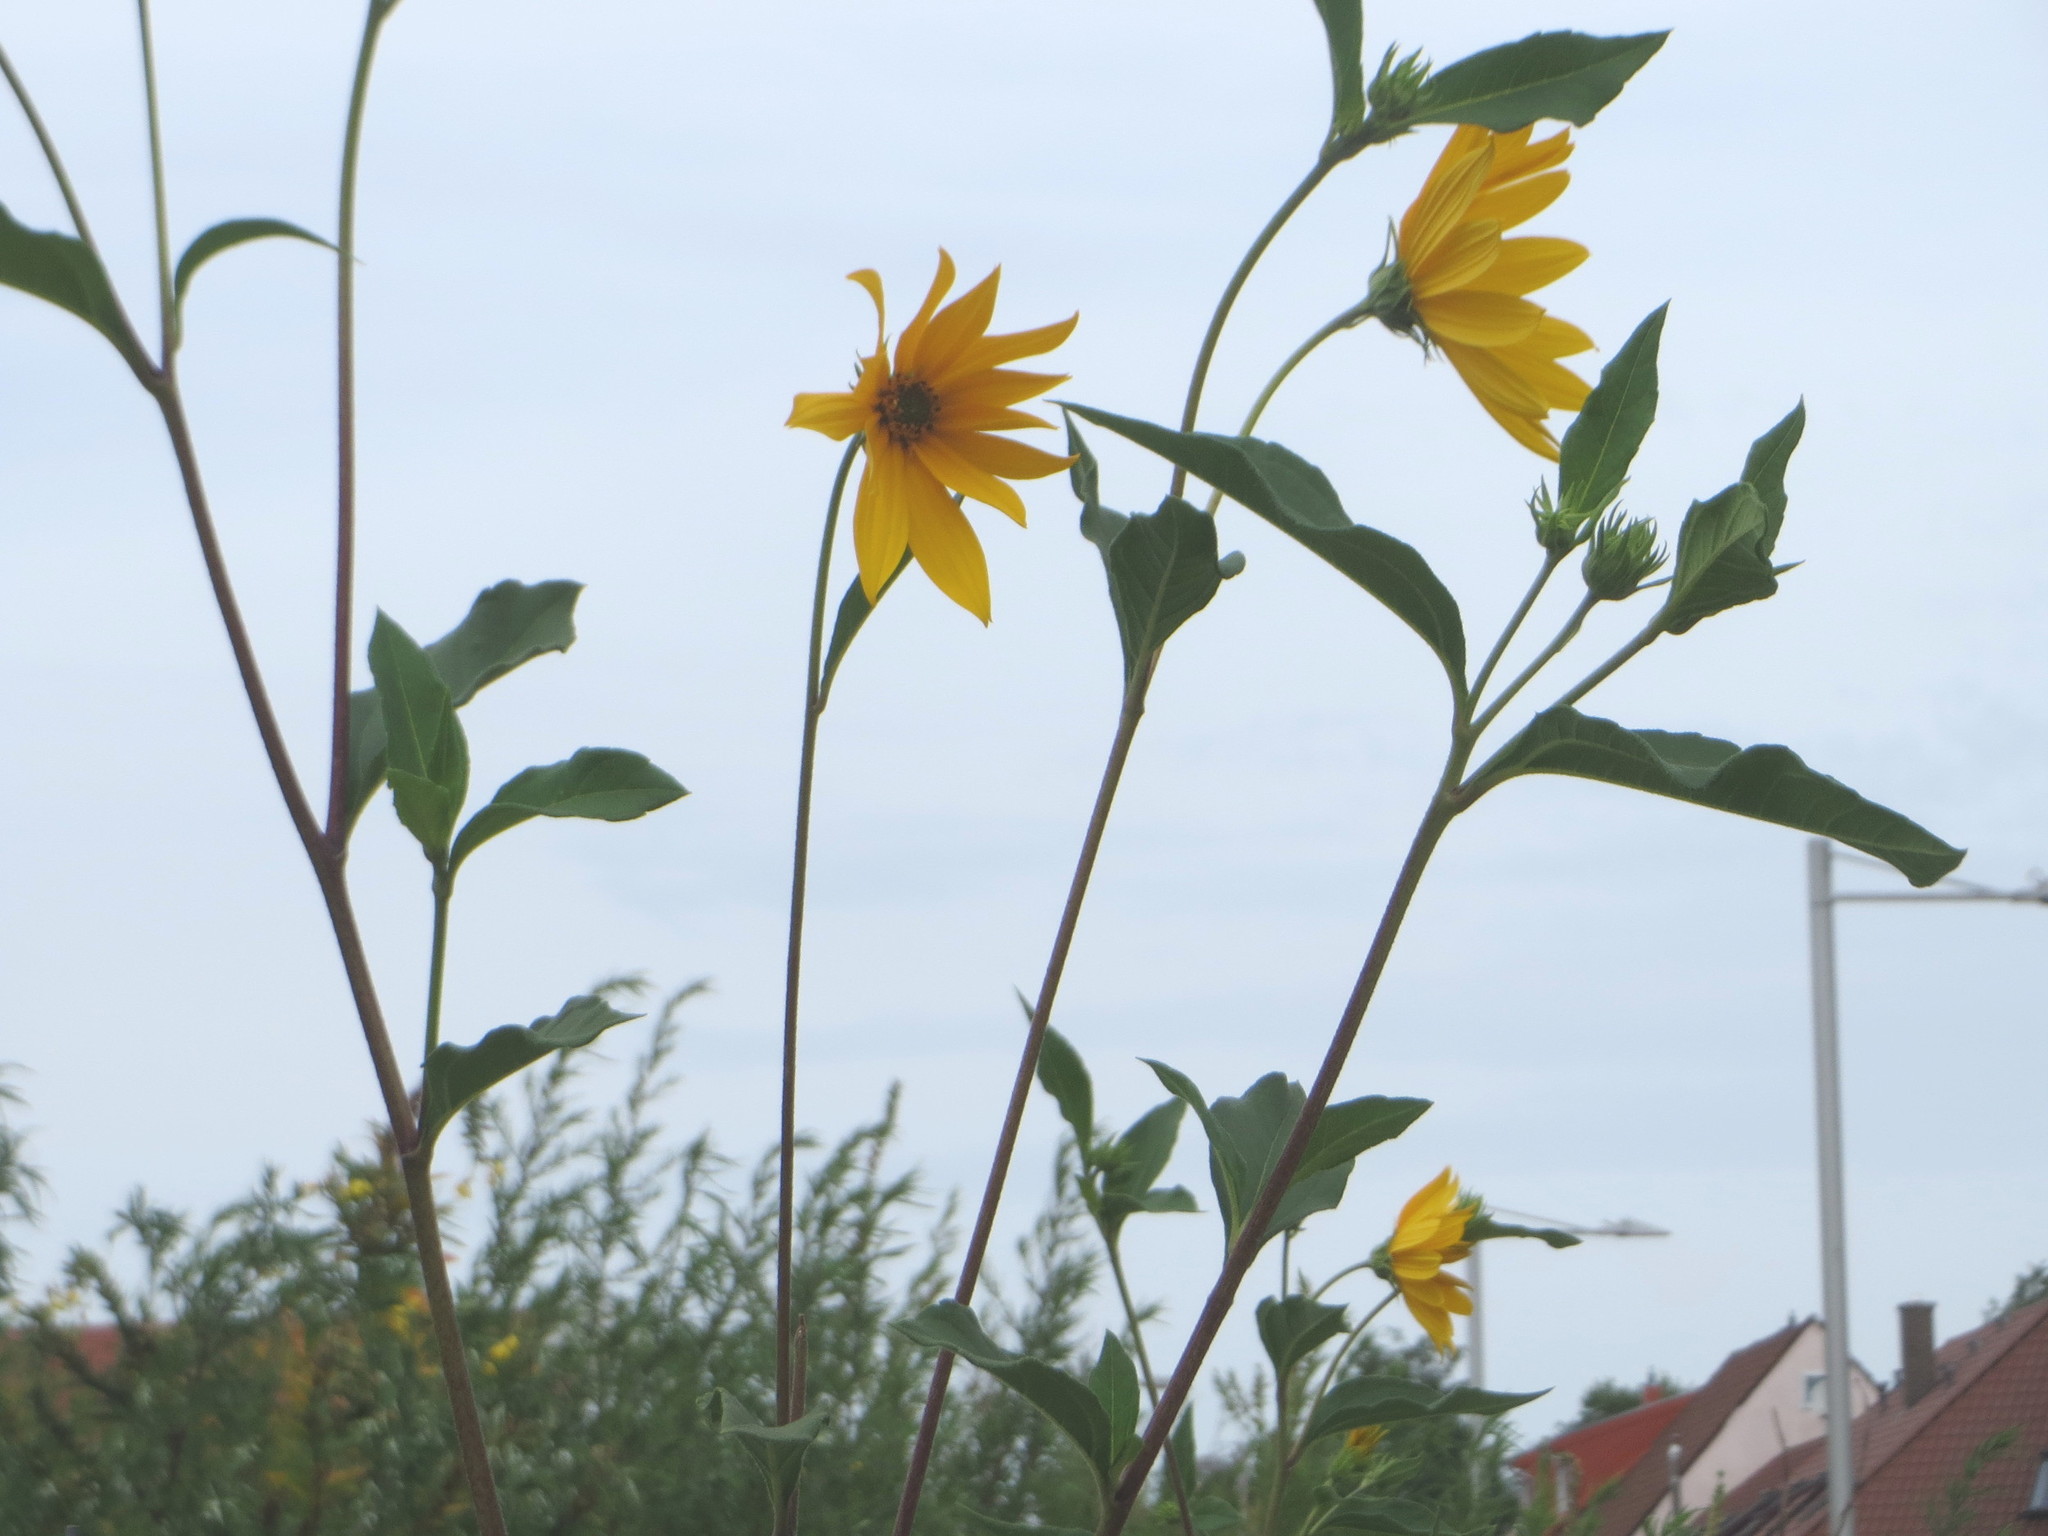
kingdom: Plantae
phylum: Tracheophyta
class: Magnoliopsida
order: Asterales
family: Asteraceae
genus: Helianthus
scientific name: Helianthus tuberosus
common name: Jerusalem artichoke
